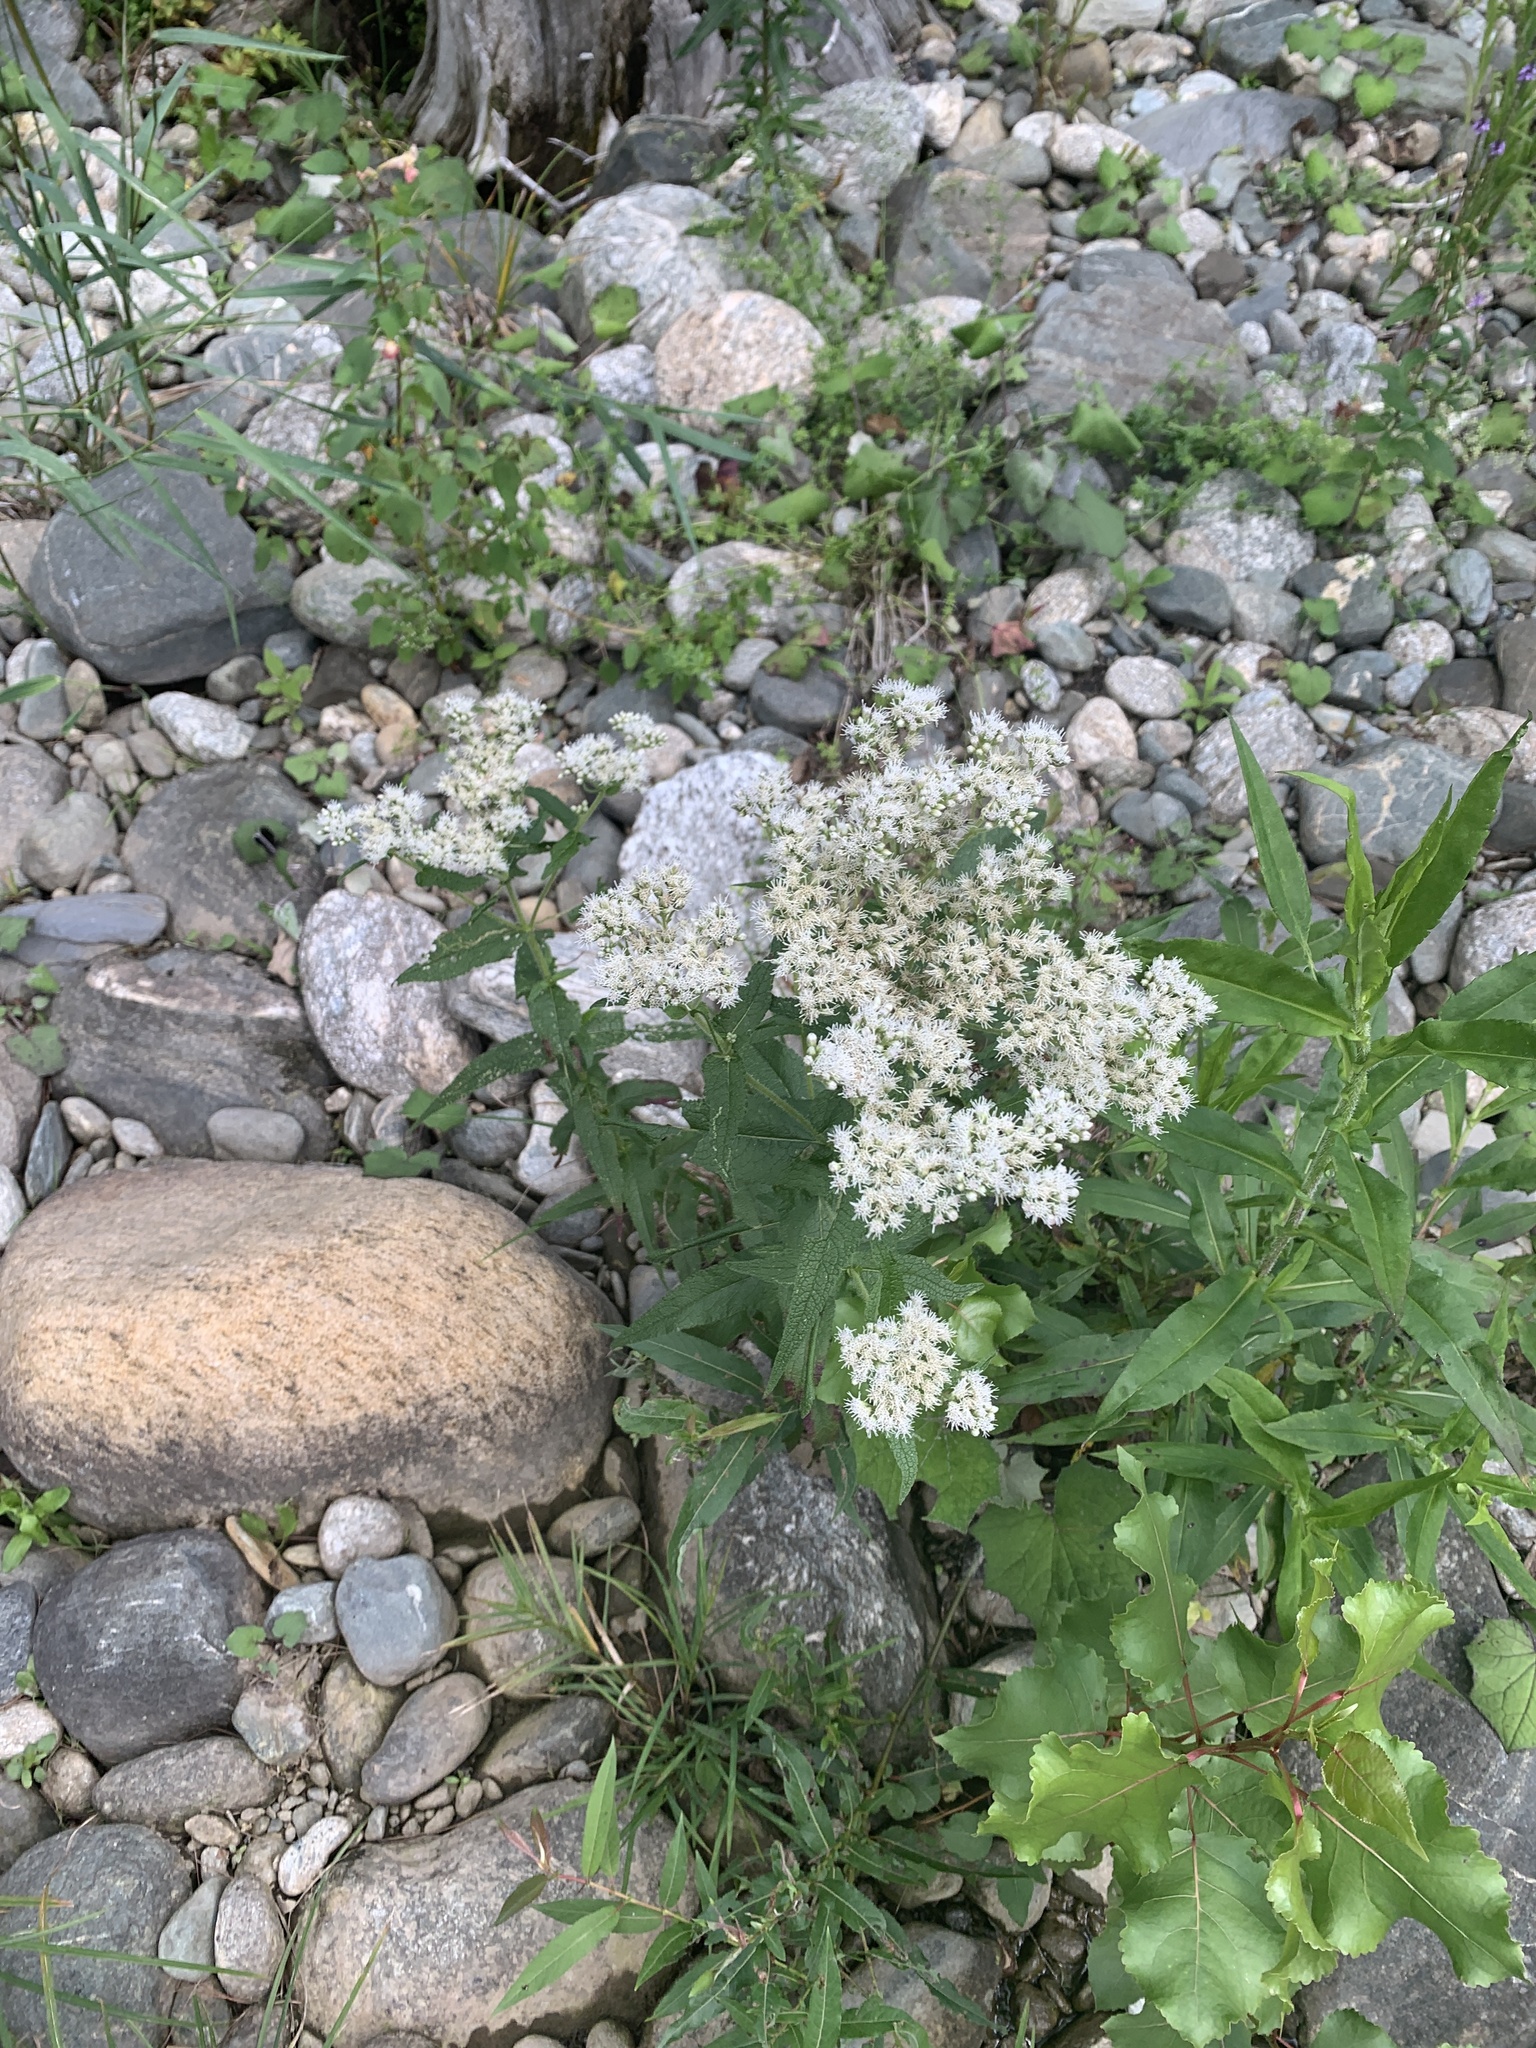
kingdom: Plantae
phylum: Tracheophyta
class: Magnoliopsida
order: Asterales
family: Asteraceae
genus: Eupatorium
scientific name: Eupatorium perfoliatum
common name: Boneset
